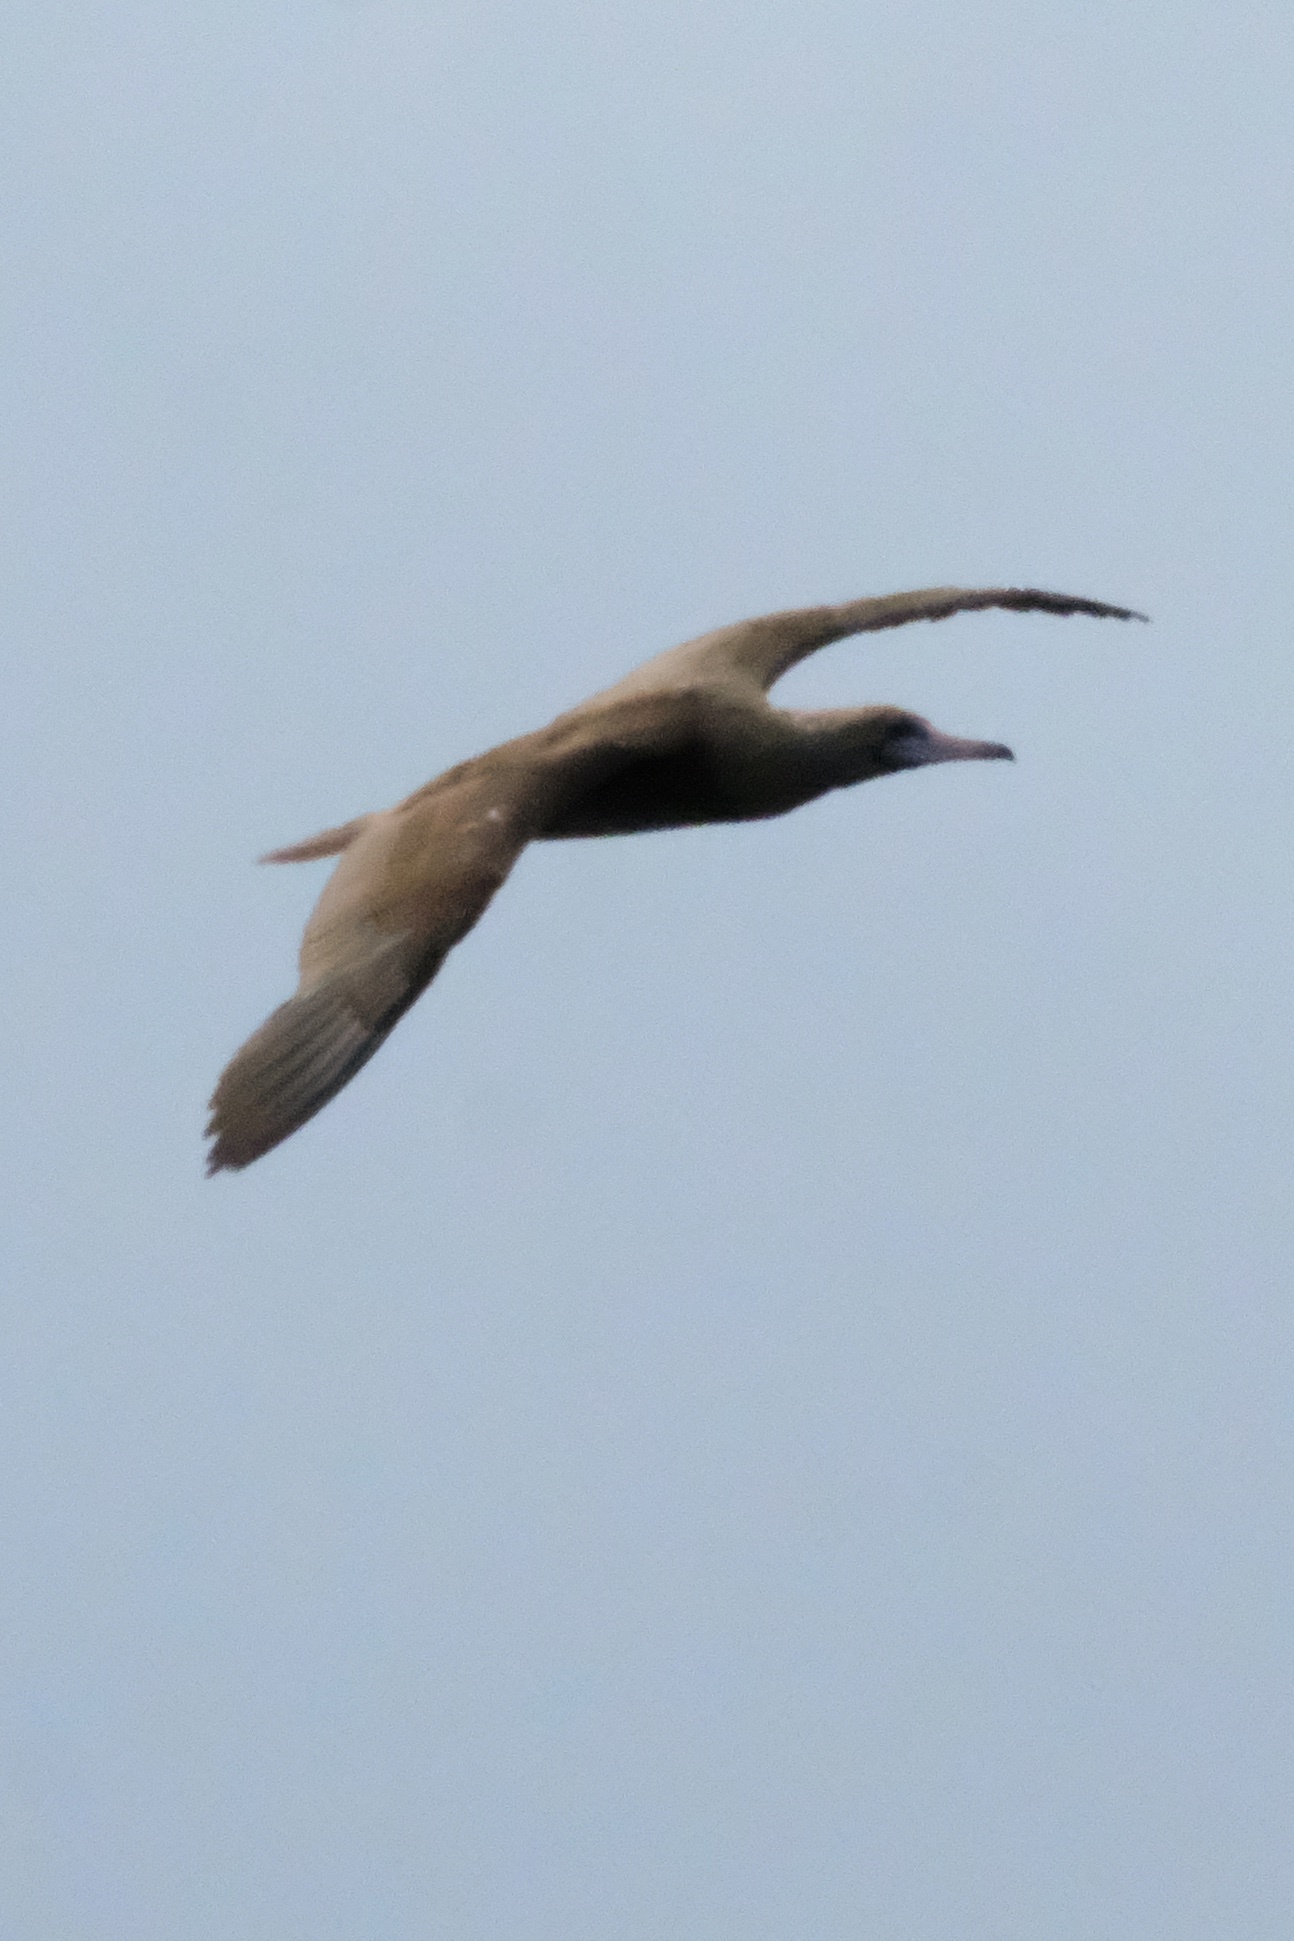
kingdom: Animalia
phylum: Chordata
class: Aves
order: Suliformes
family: Sulidae
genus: Sula
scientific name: Sula sula
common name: Red-footed booby
